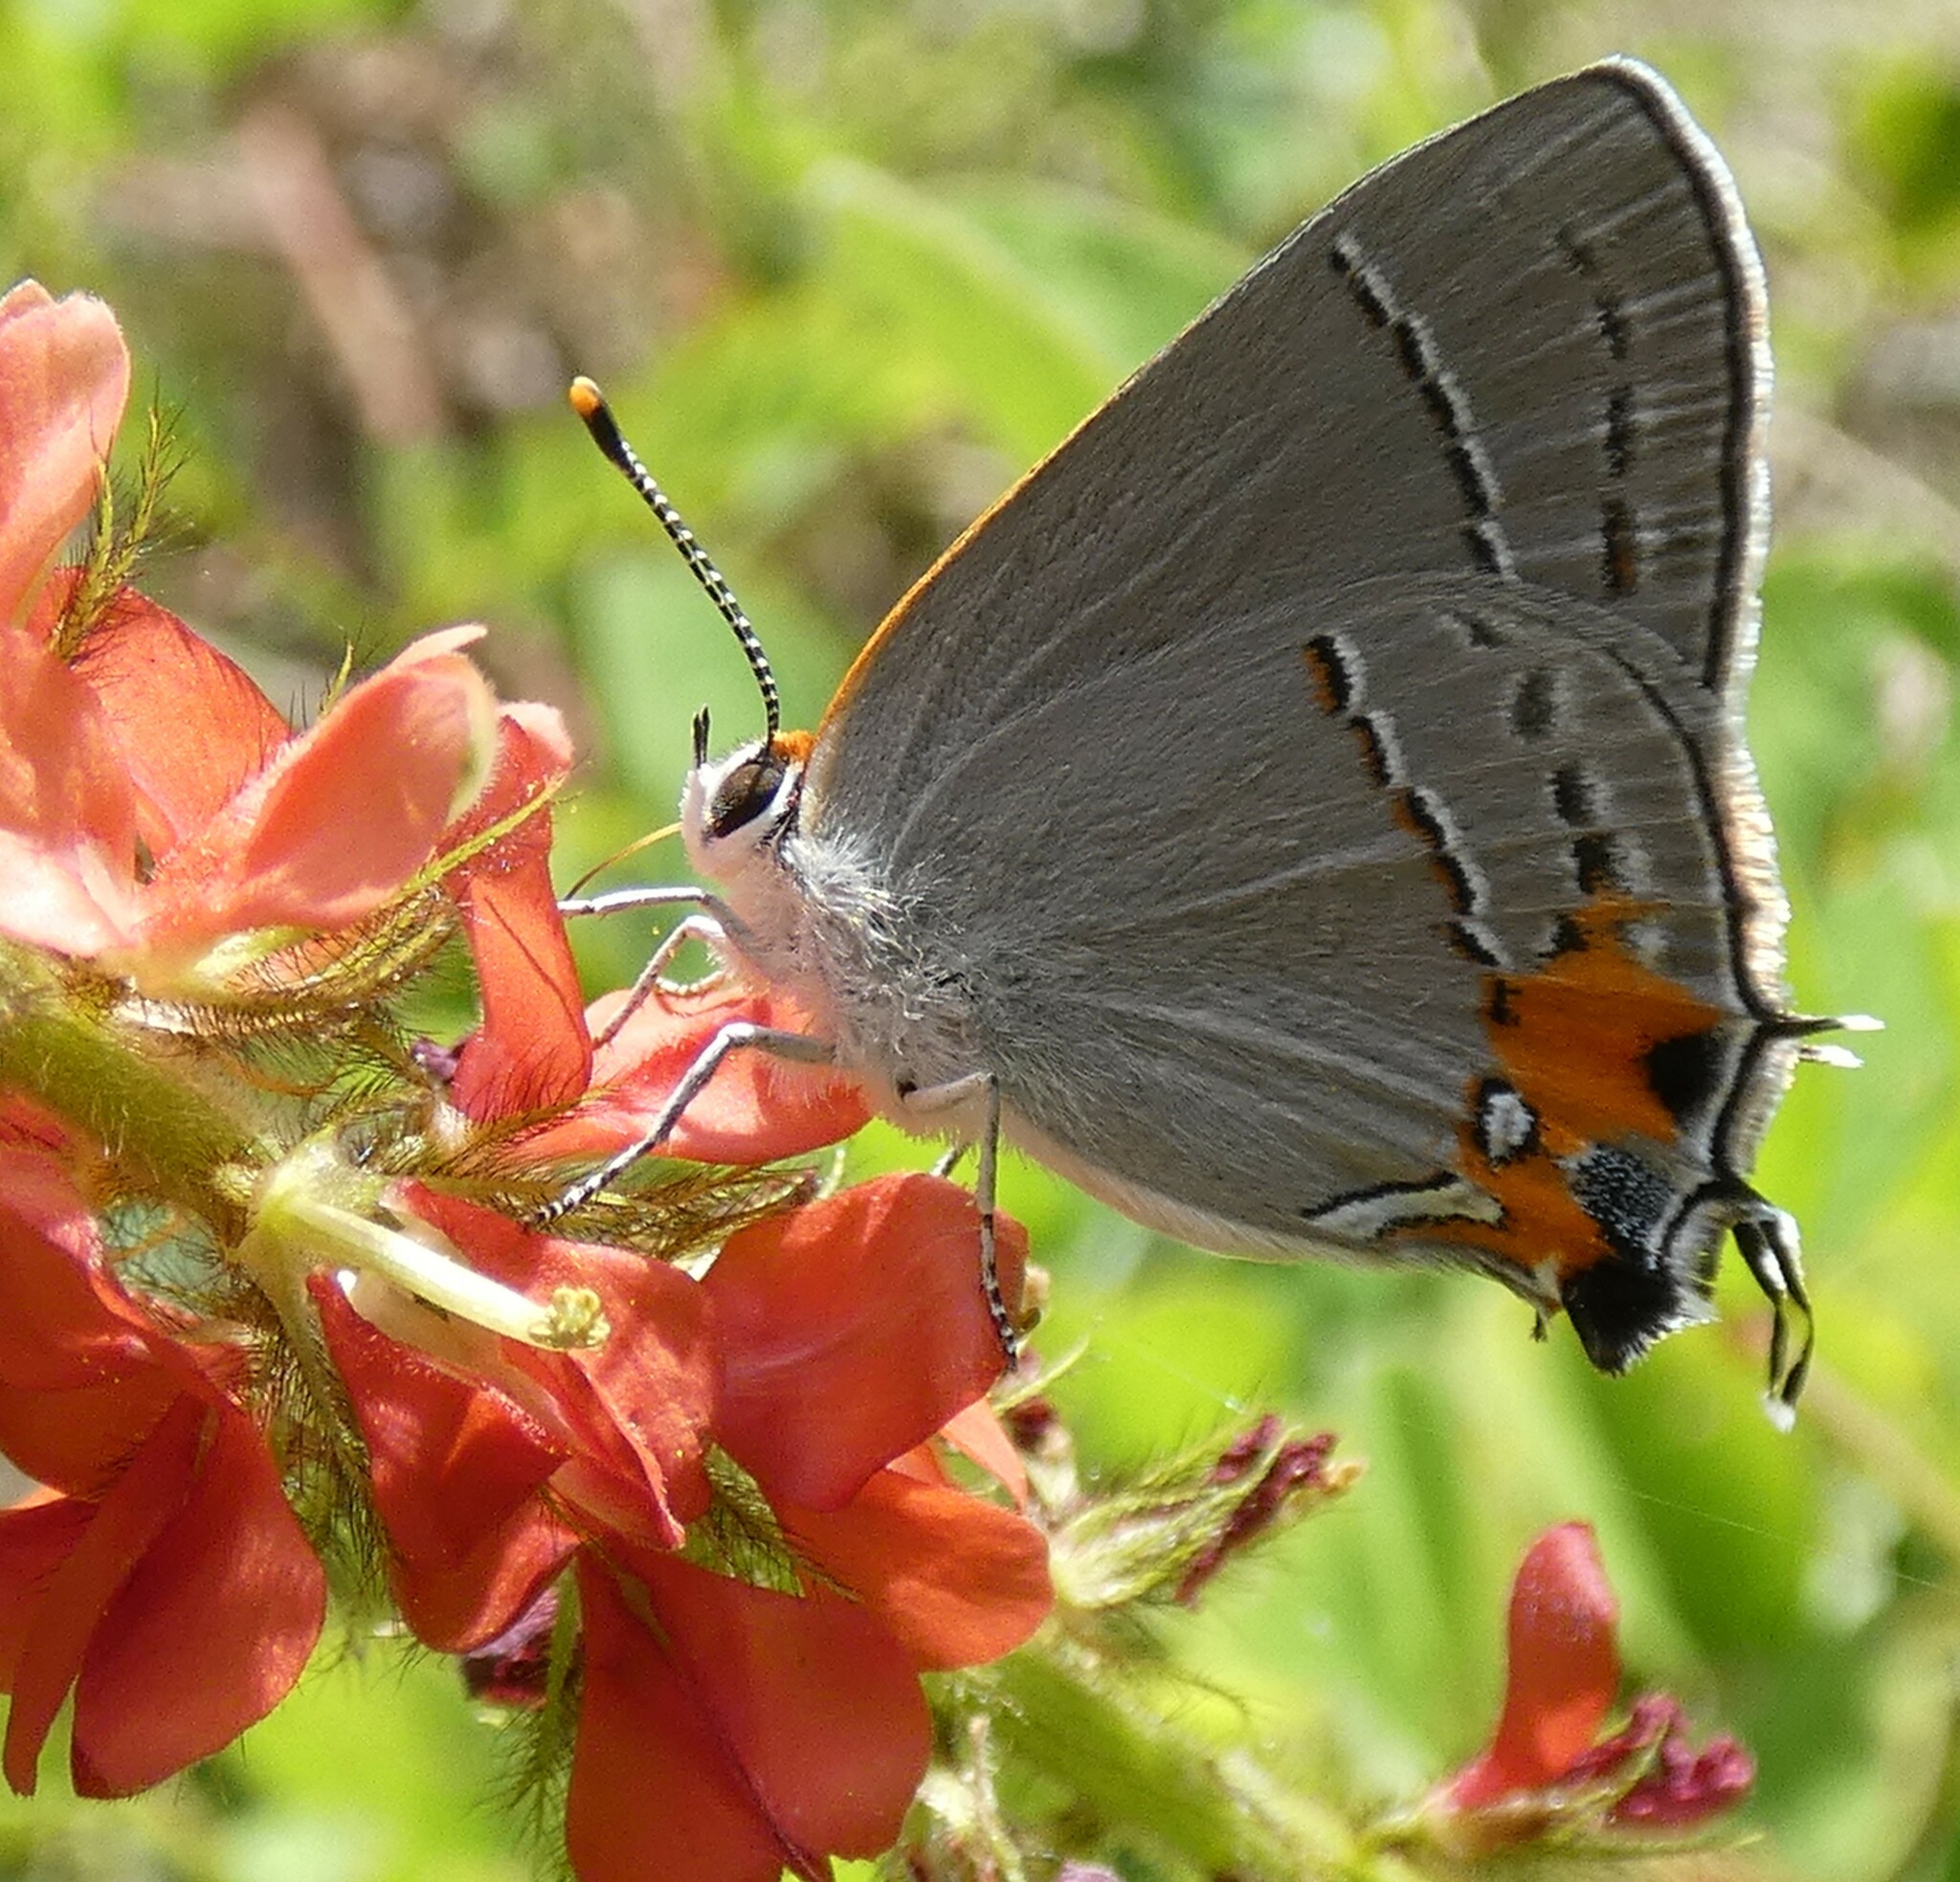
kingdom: Animalia
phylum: Arthropoda
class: Insecta
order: Lepidoptera
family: Lycaenidae
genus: Strymon
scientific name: Strymon melinus
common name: Gray hairstreak
